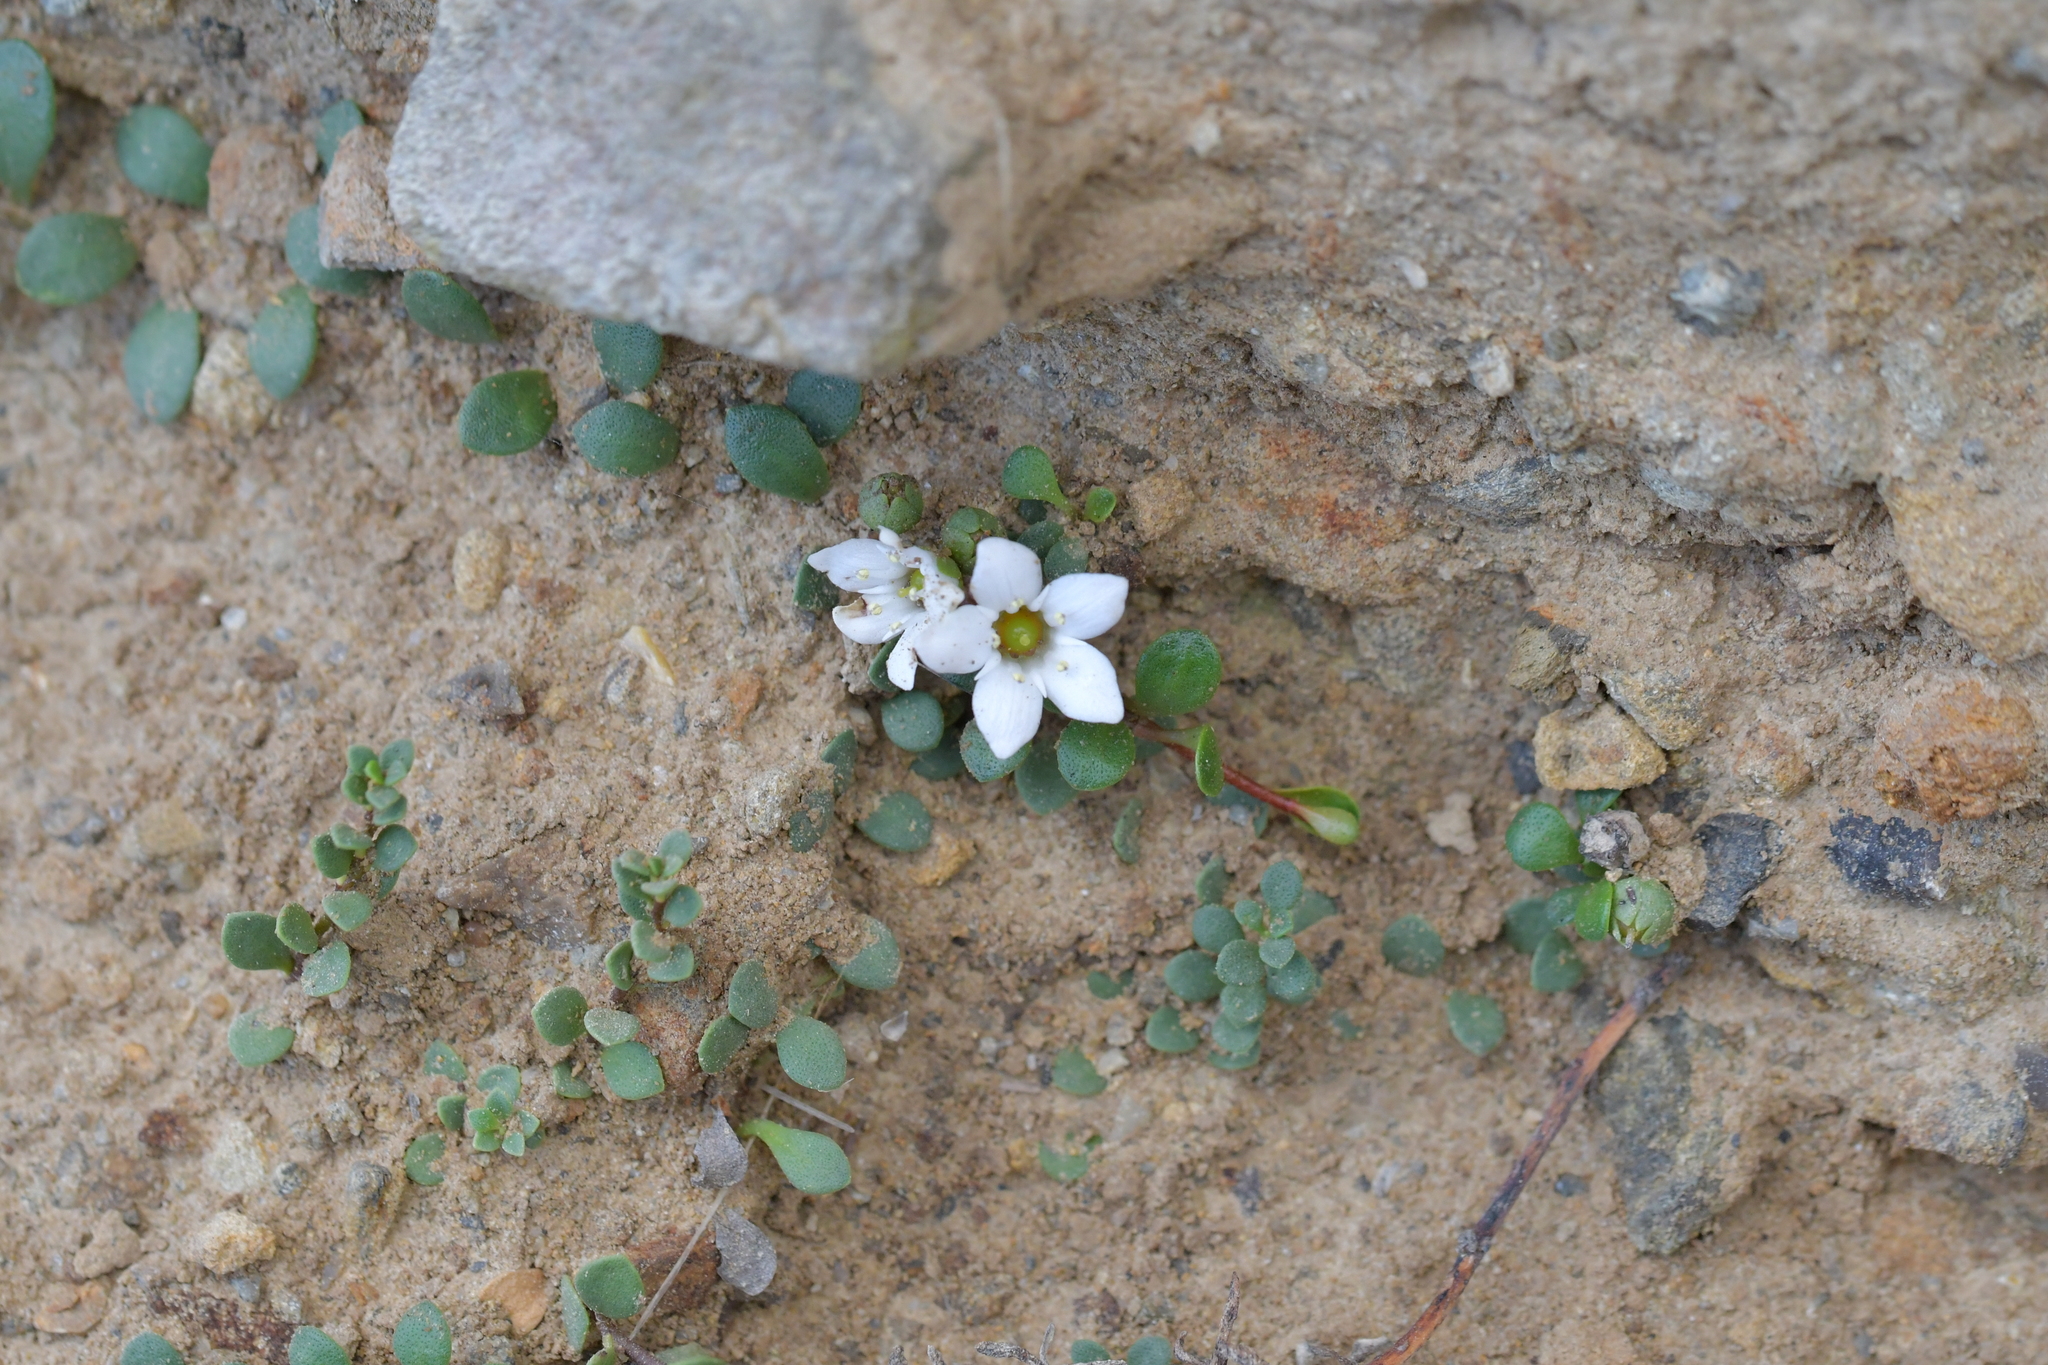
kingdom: Plantae
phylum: Tracheophyta
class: Magnoliopsida
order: Ericales
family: Primulaceae
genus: Samolus
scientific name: Samolus repens
